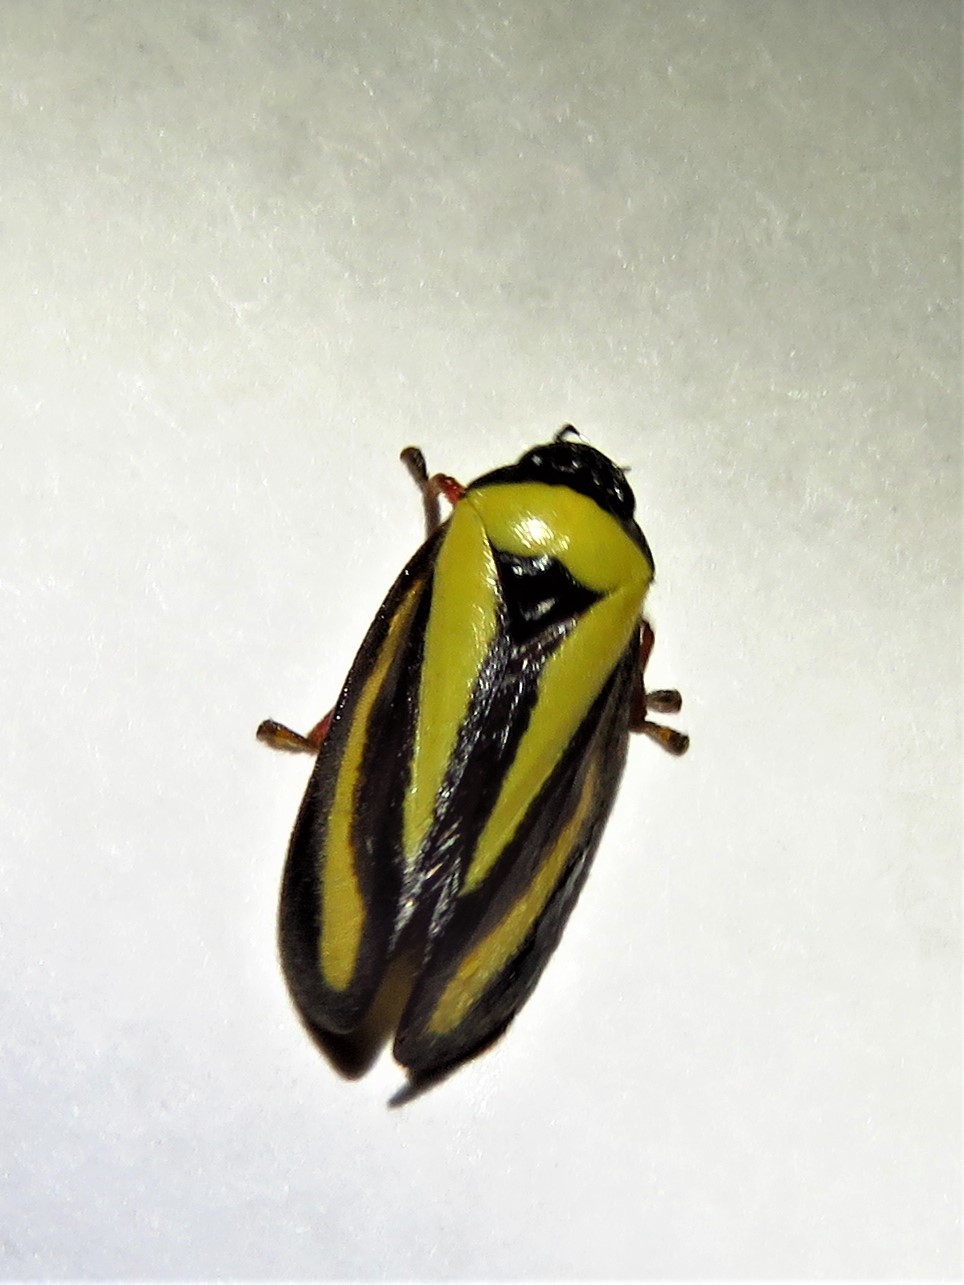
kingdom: Animalia
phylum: Arthropoda
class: Insecta
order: Hemiptera
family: Cercopidae
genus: Hemitriecphora
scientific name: Hemitriecphora haglundi
